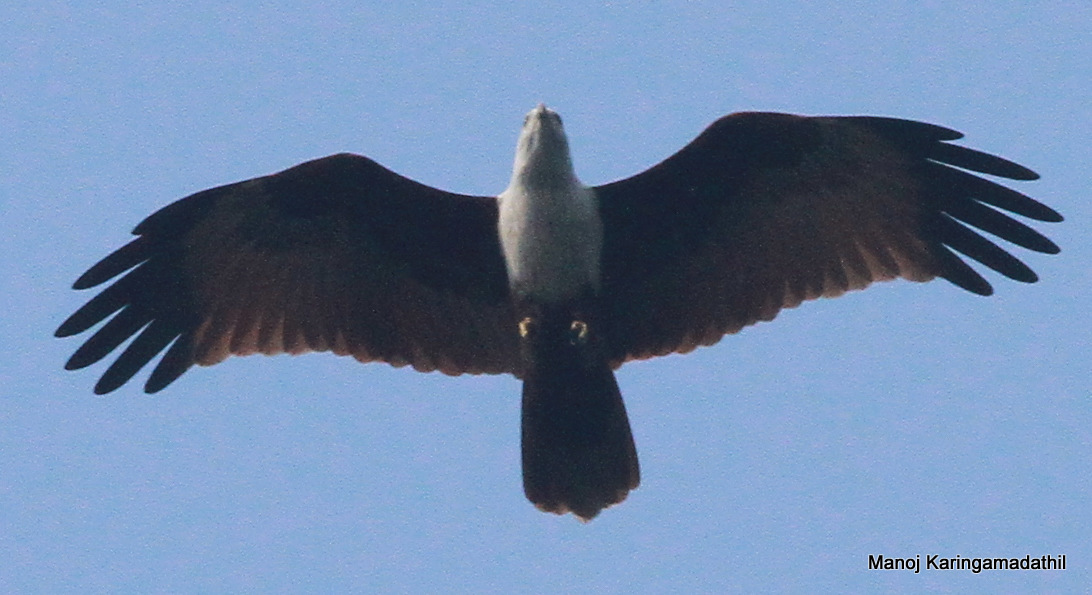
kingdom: Animalia
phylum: Chordata
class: Aves
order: Accipitriformes
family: Accipitridae
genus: Haliastur
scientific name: Haliastur indus
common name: Brahminy kite
